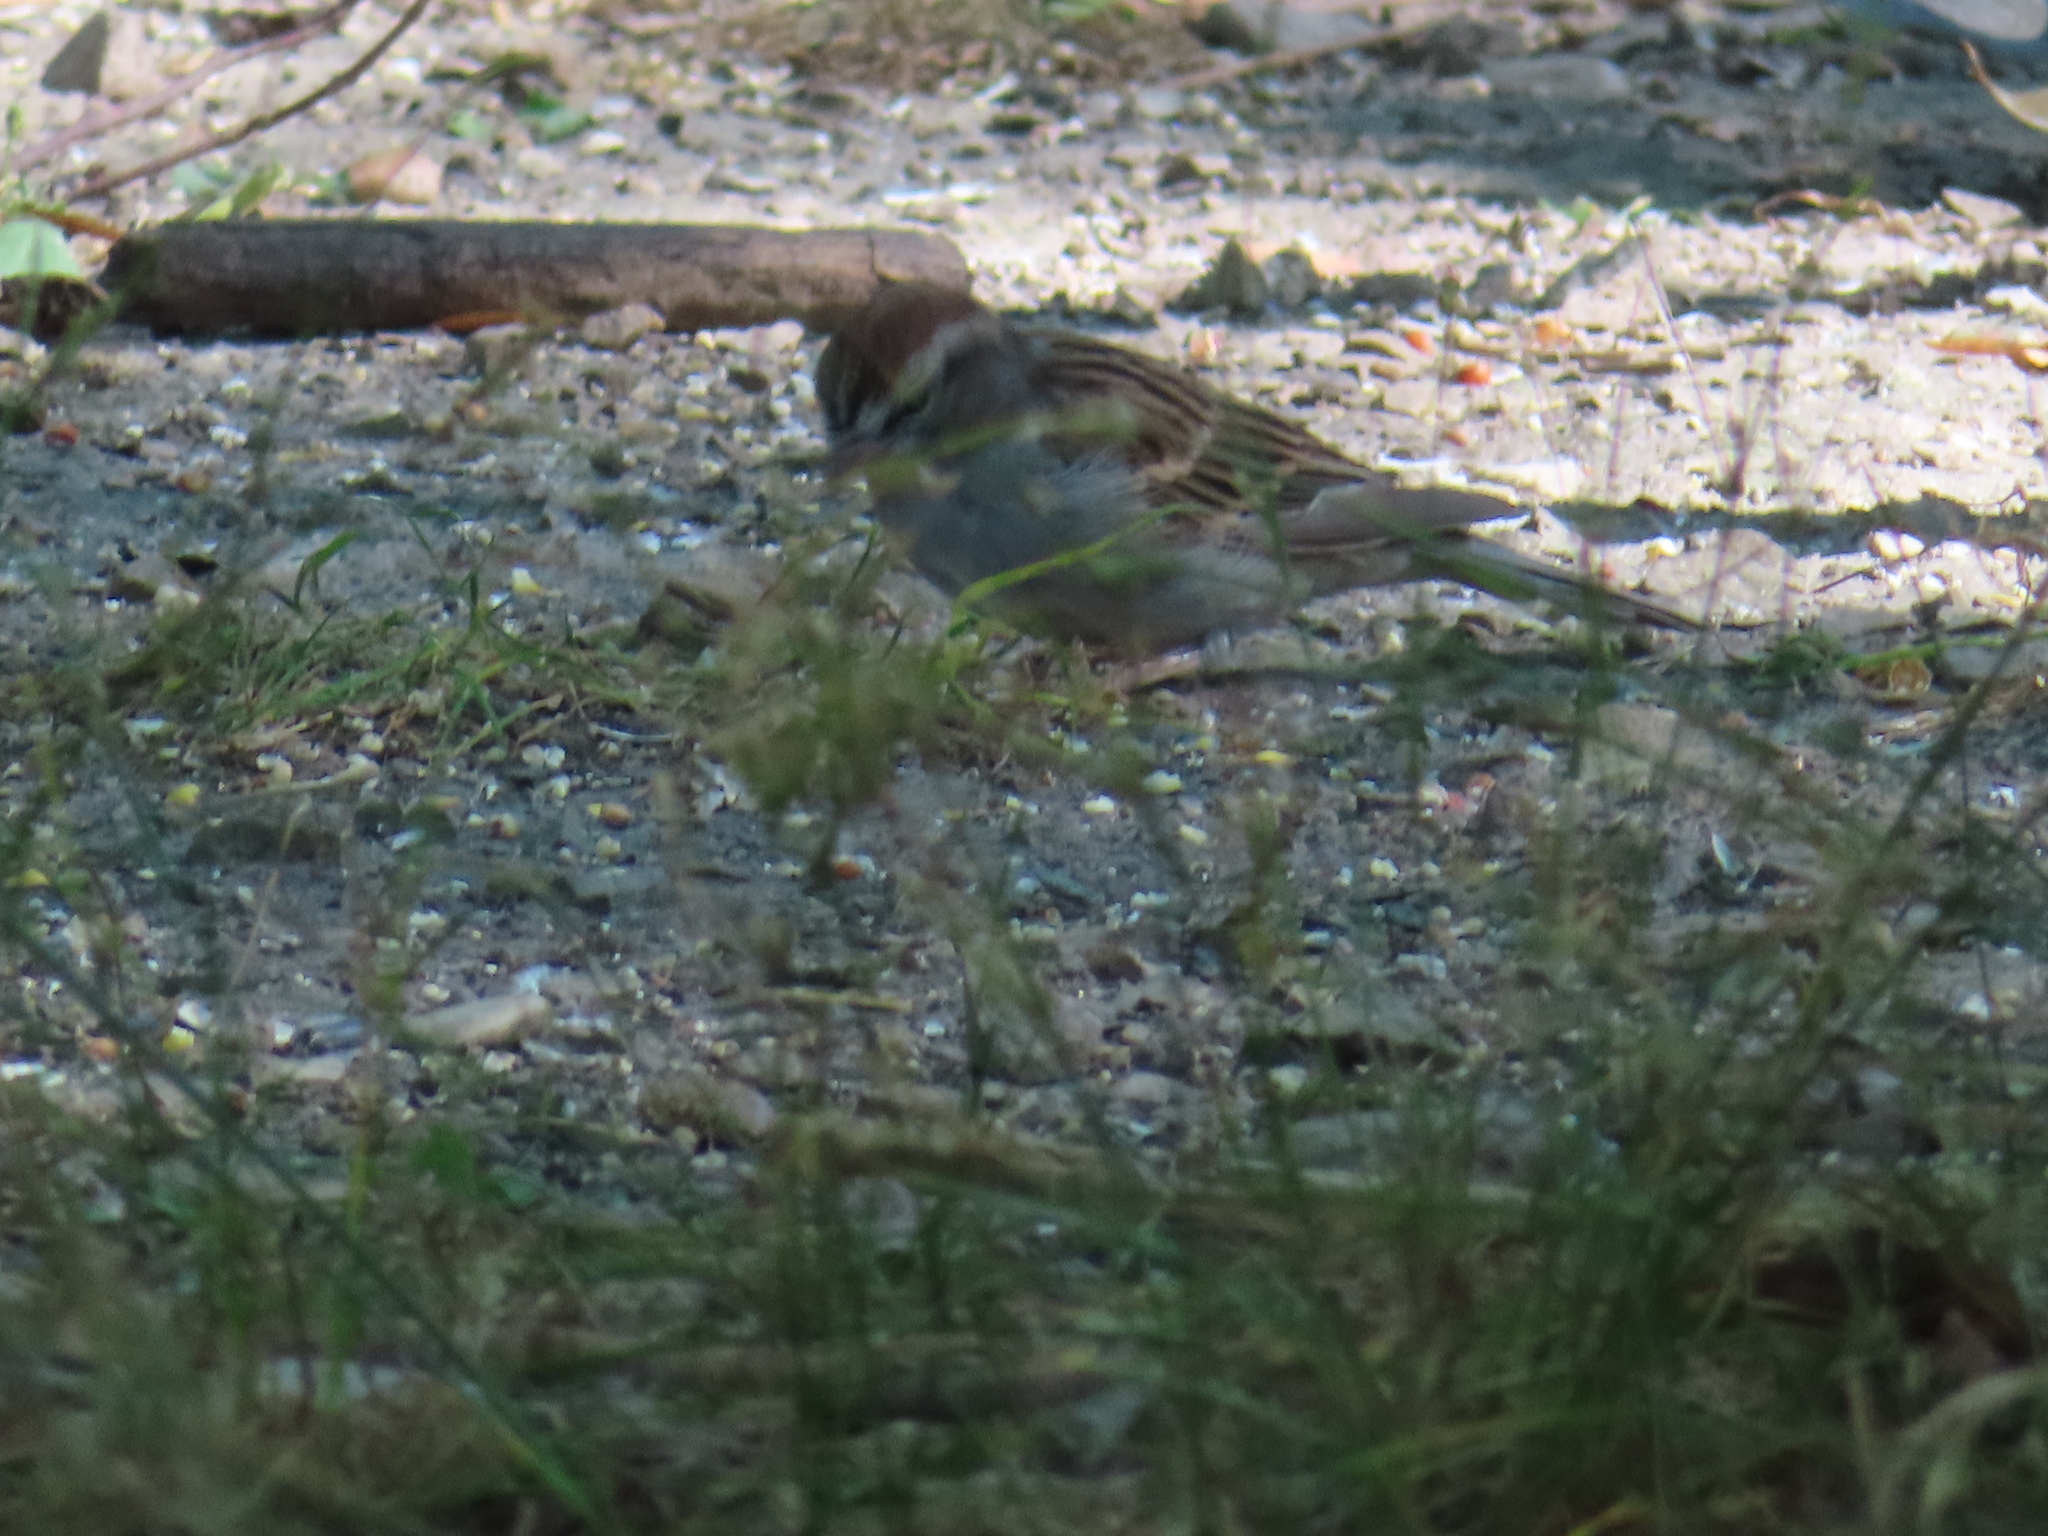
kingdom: Animalia
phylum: Chordata
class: Aves
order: Passeriformes
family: Passerellidae
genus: Spizella
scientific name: Spizella passerina
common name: Chipping sparrow
